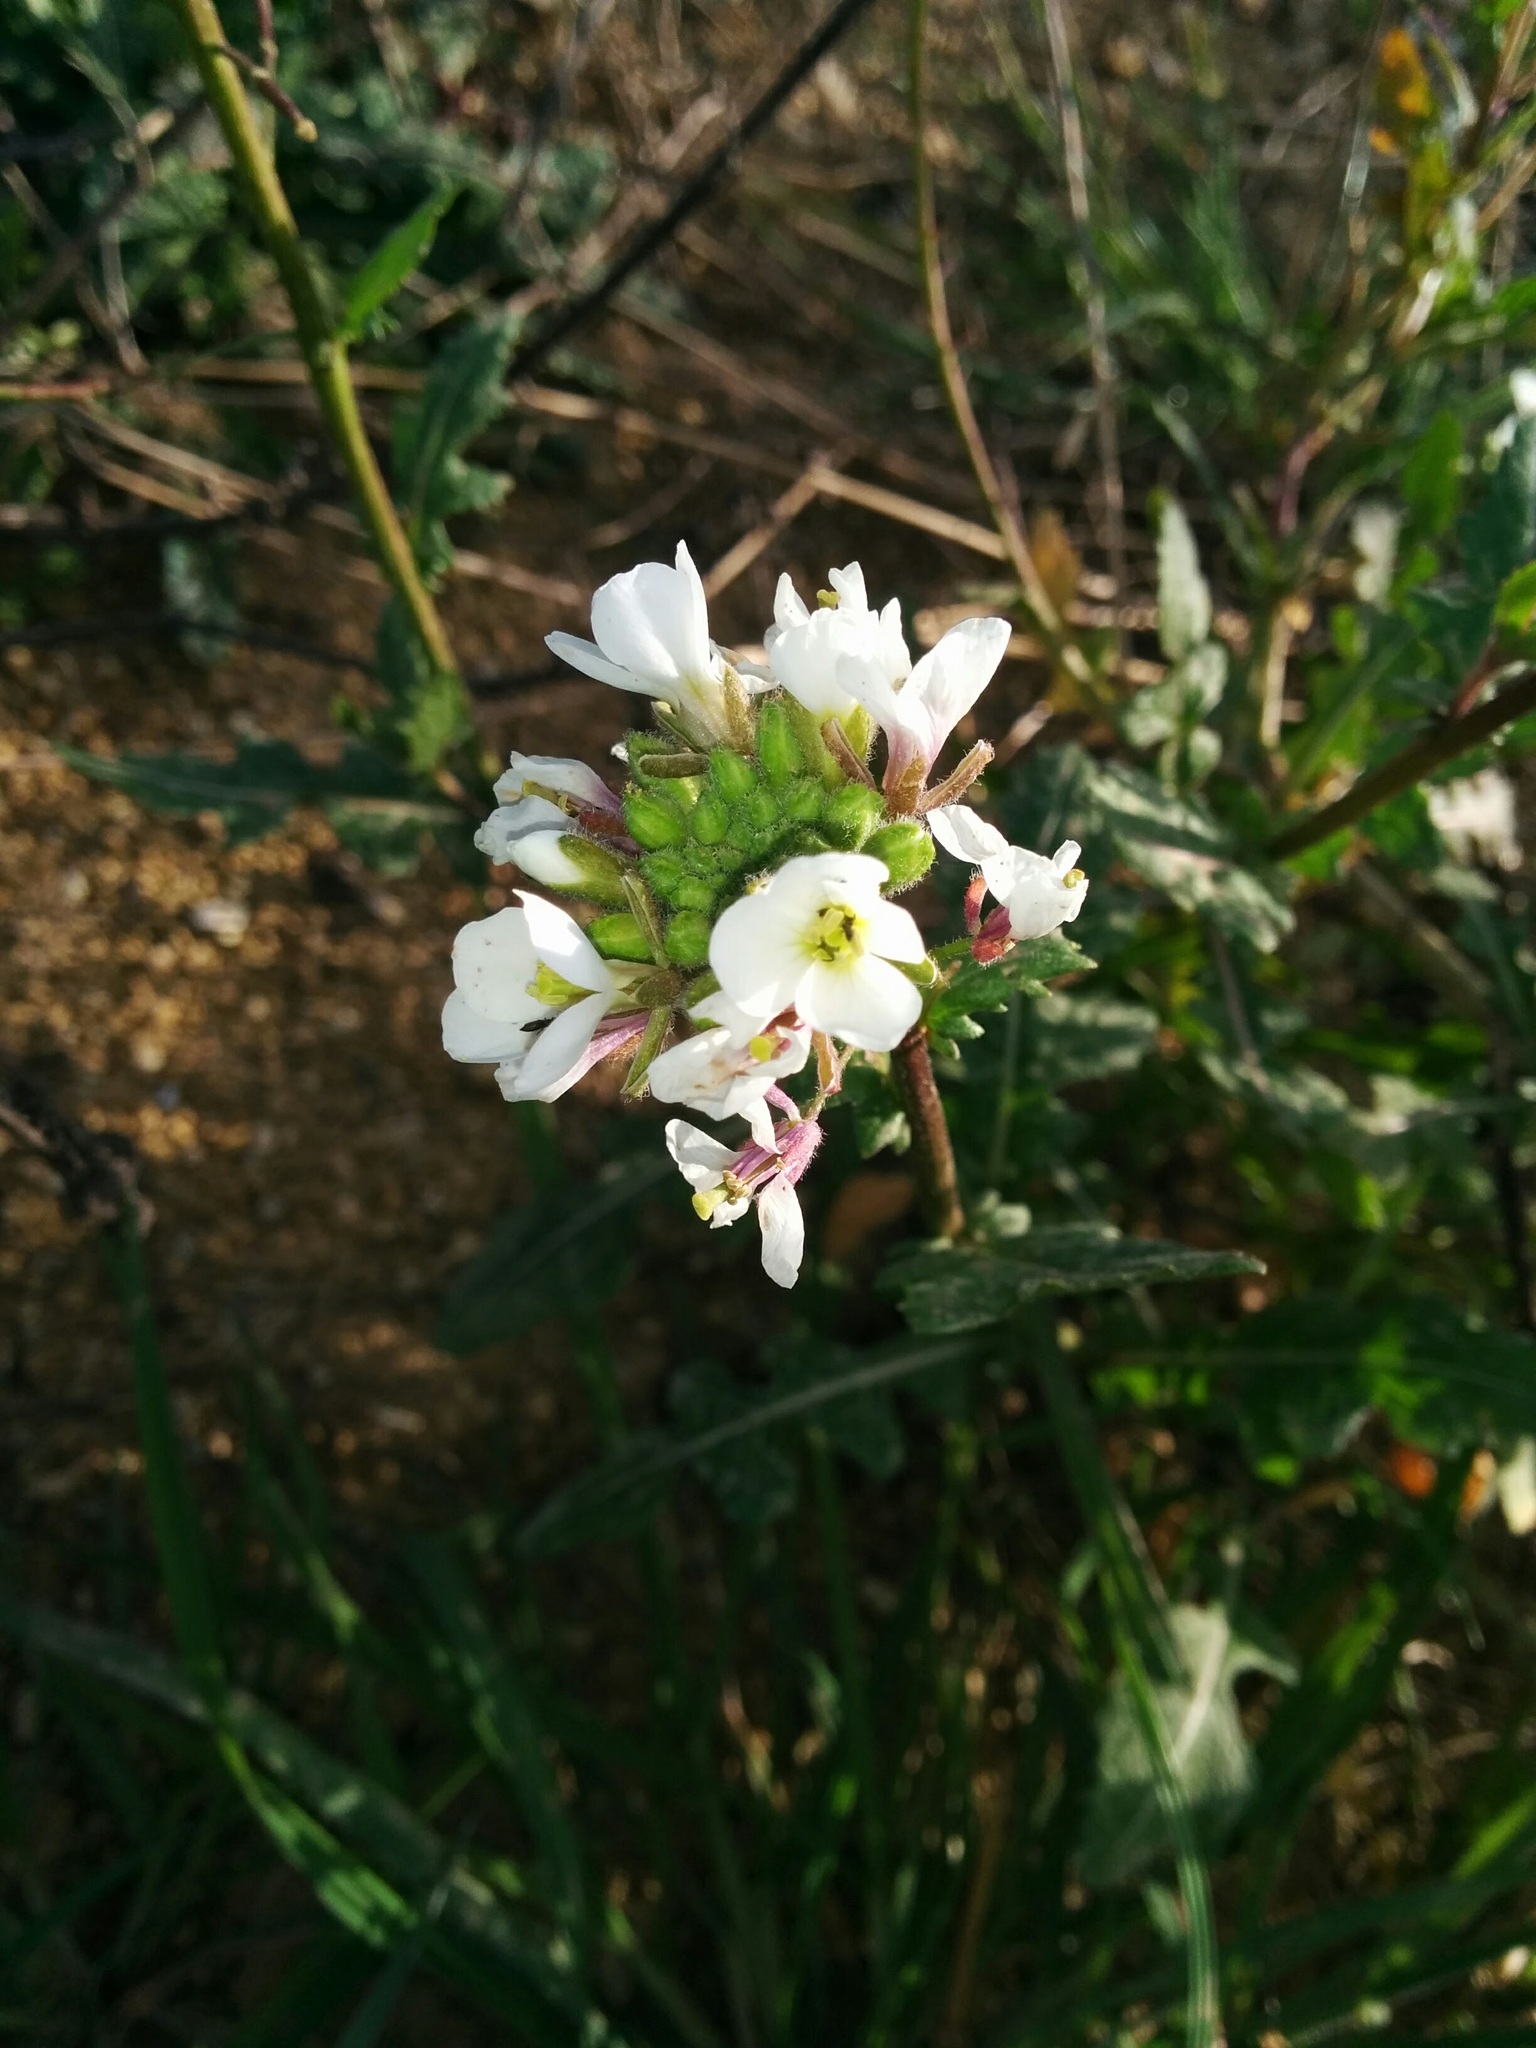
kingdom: Plantae
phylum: Tracheophyta
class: Magnoliopsida
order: Brassicales
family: Brassicaceae
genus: Diplotaxis
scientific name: Diplotaxis erucoides
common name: White rocket
